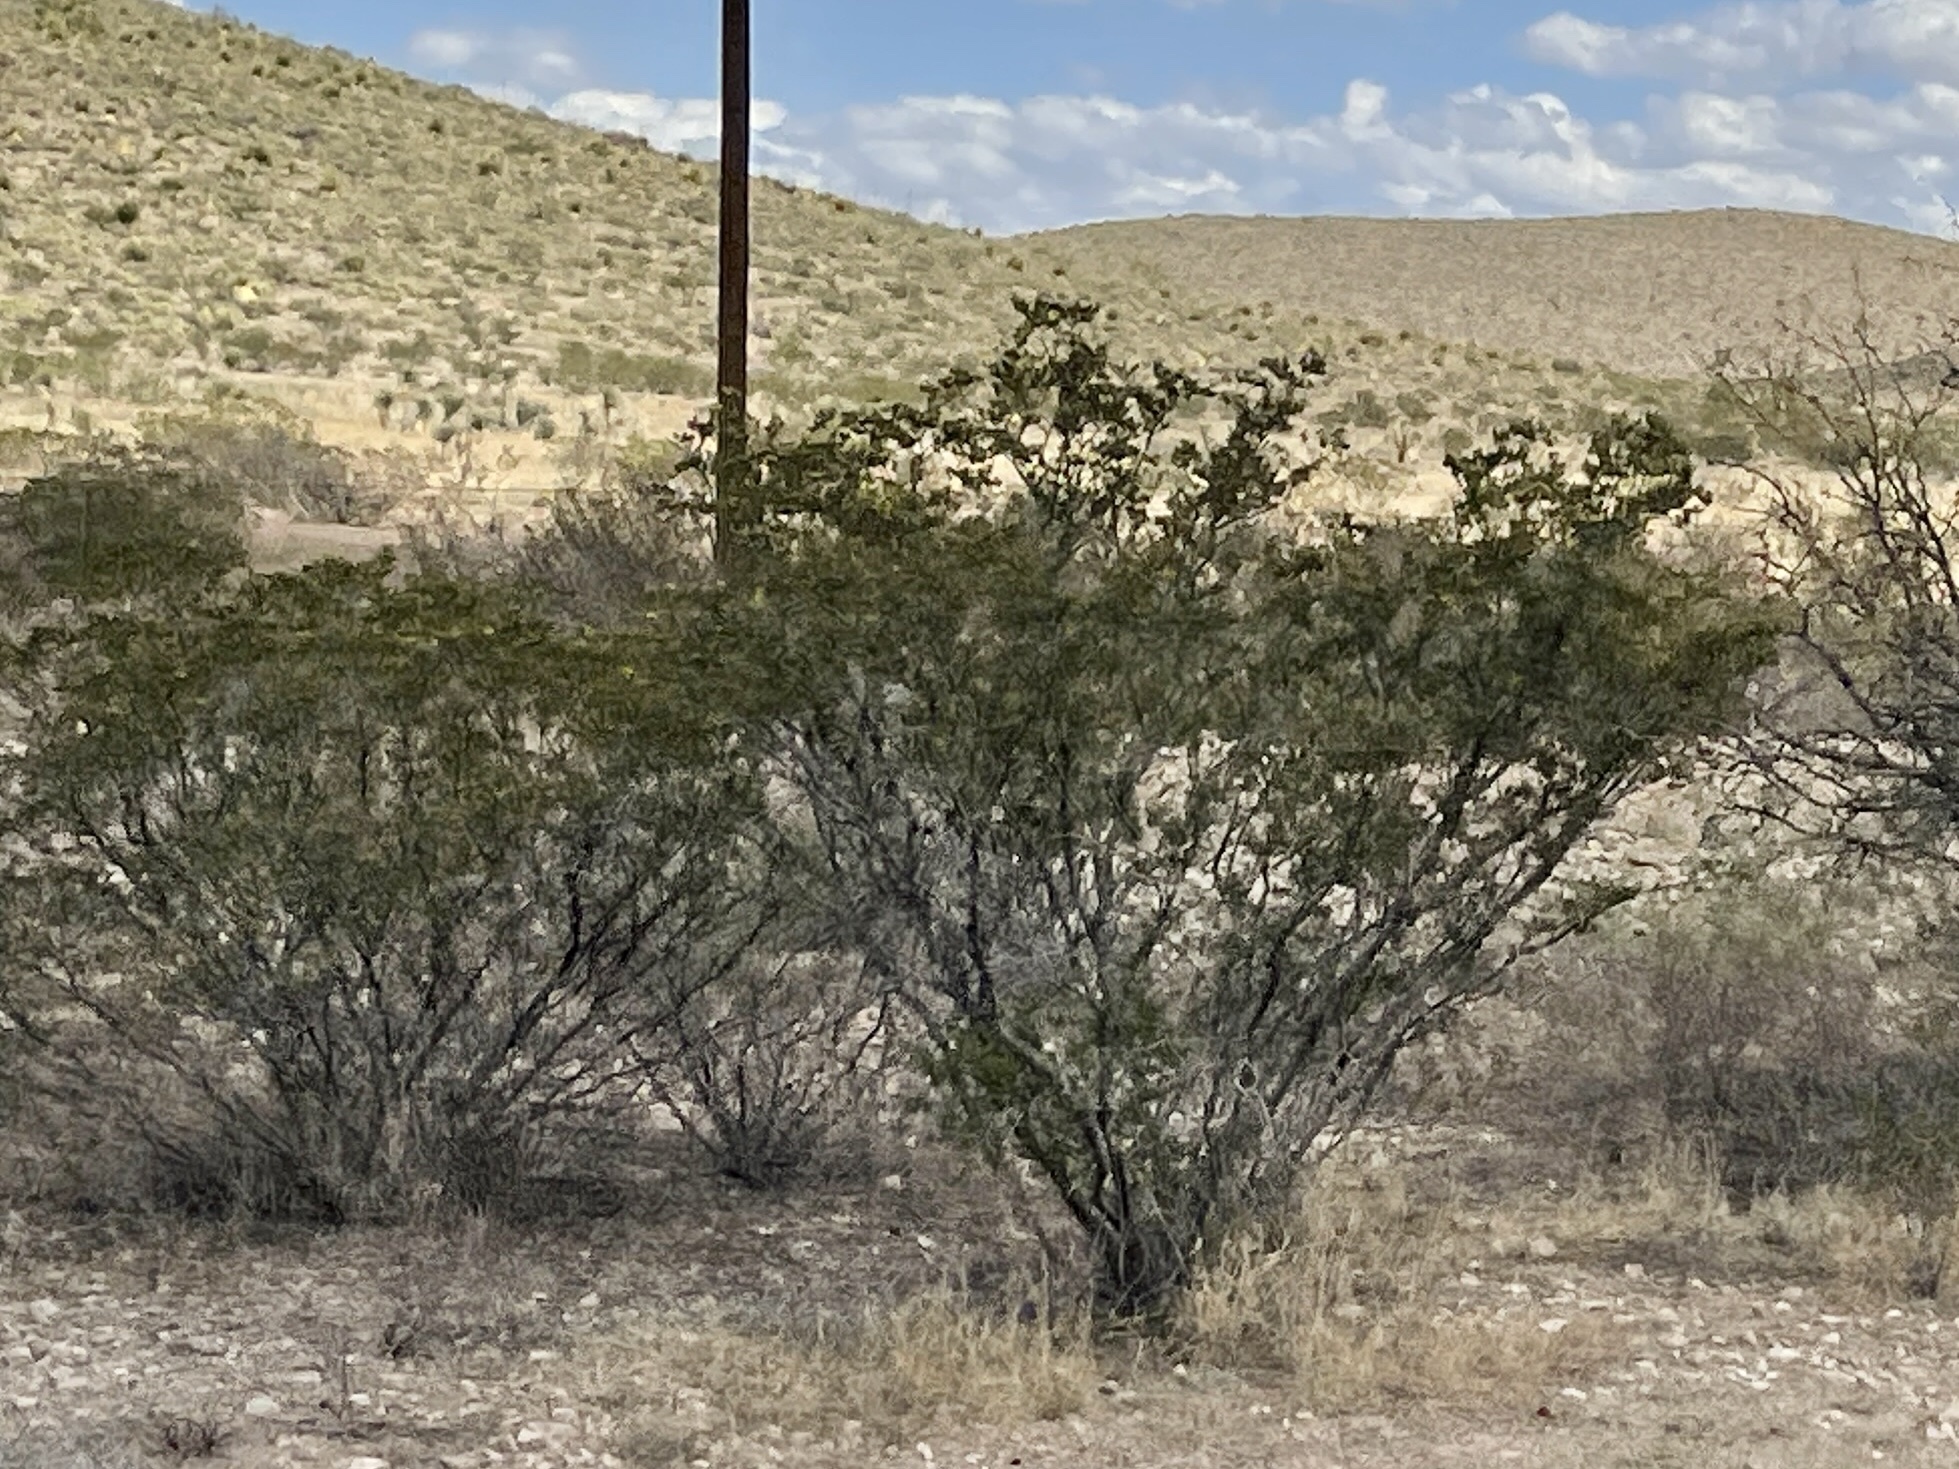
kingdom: Plantae
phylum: Tracheophyta
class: Magnoliopsida
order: Zygophyllales
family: Zygophyllaceae
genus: Larrea
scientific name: Larrea tridentata
